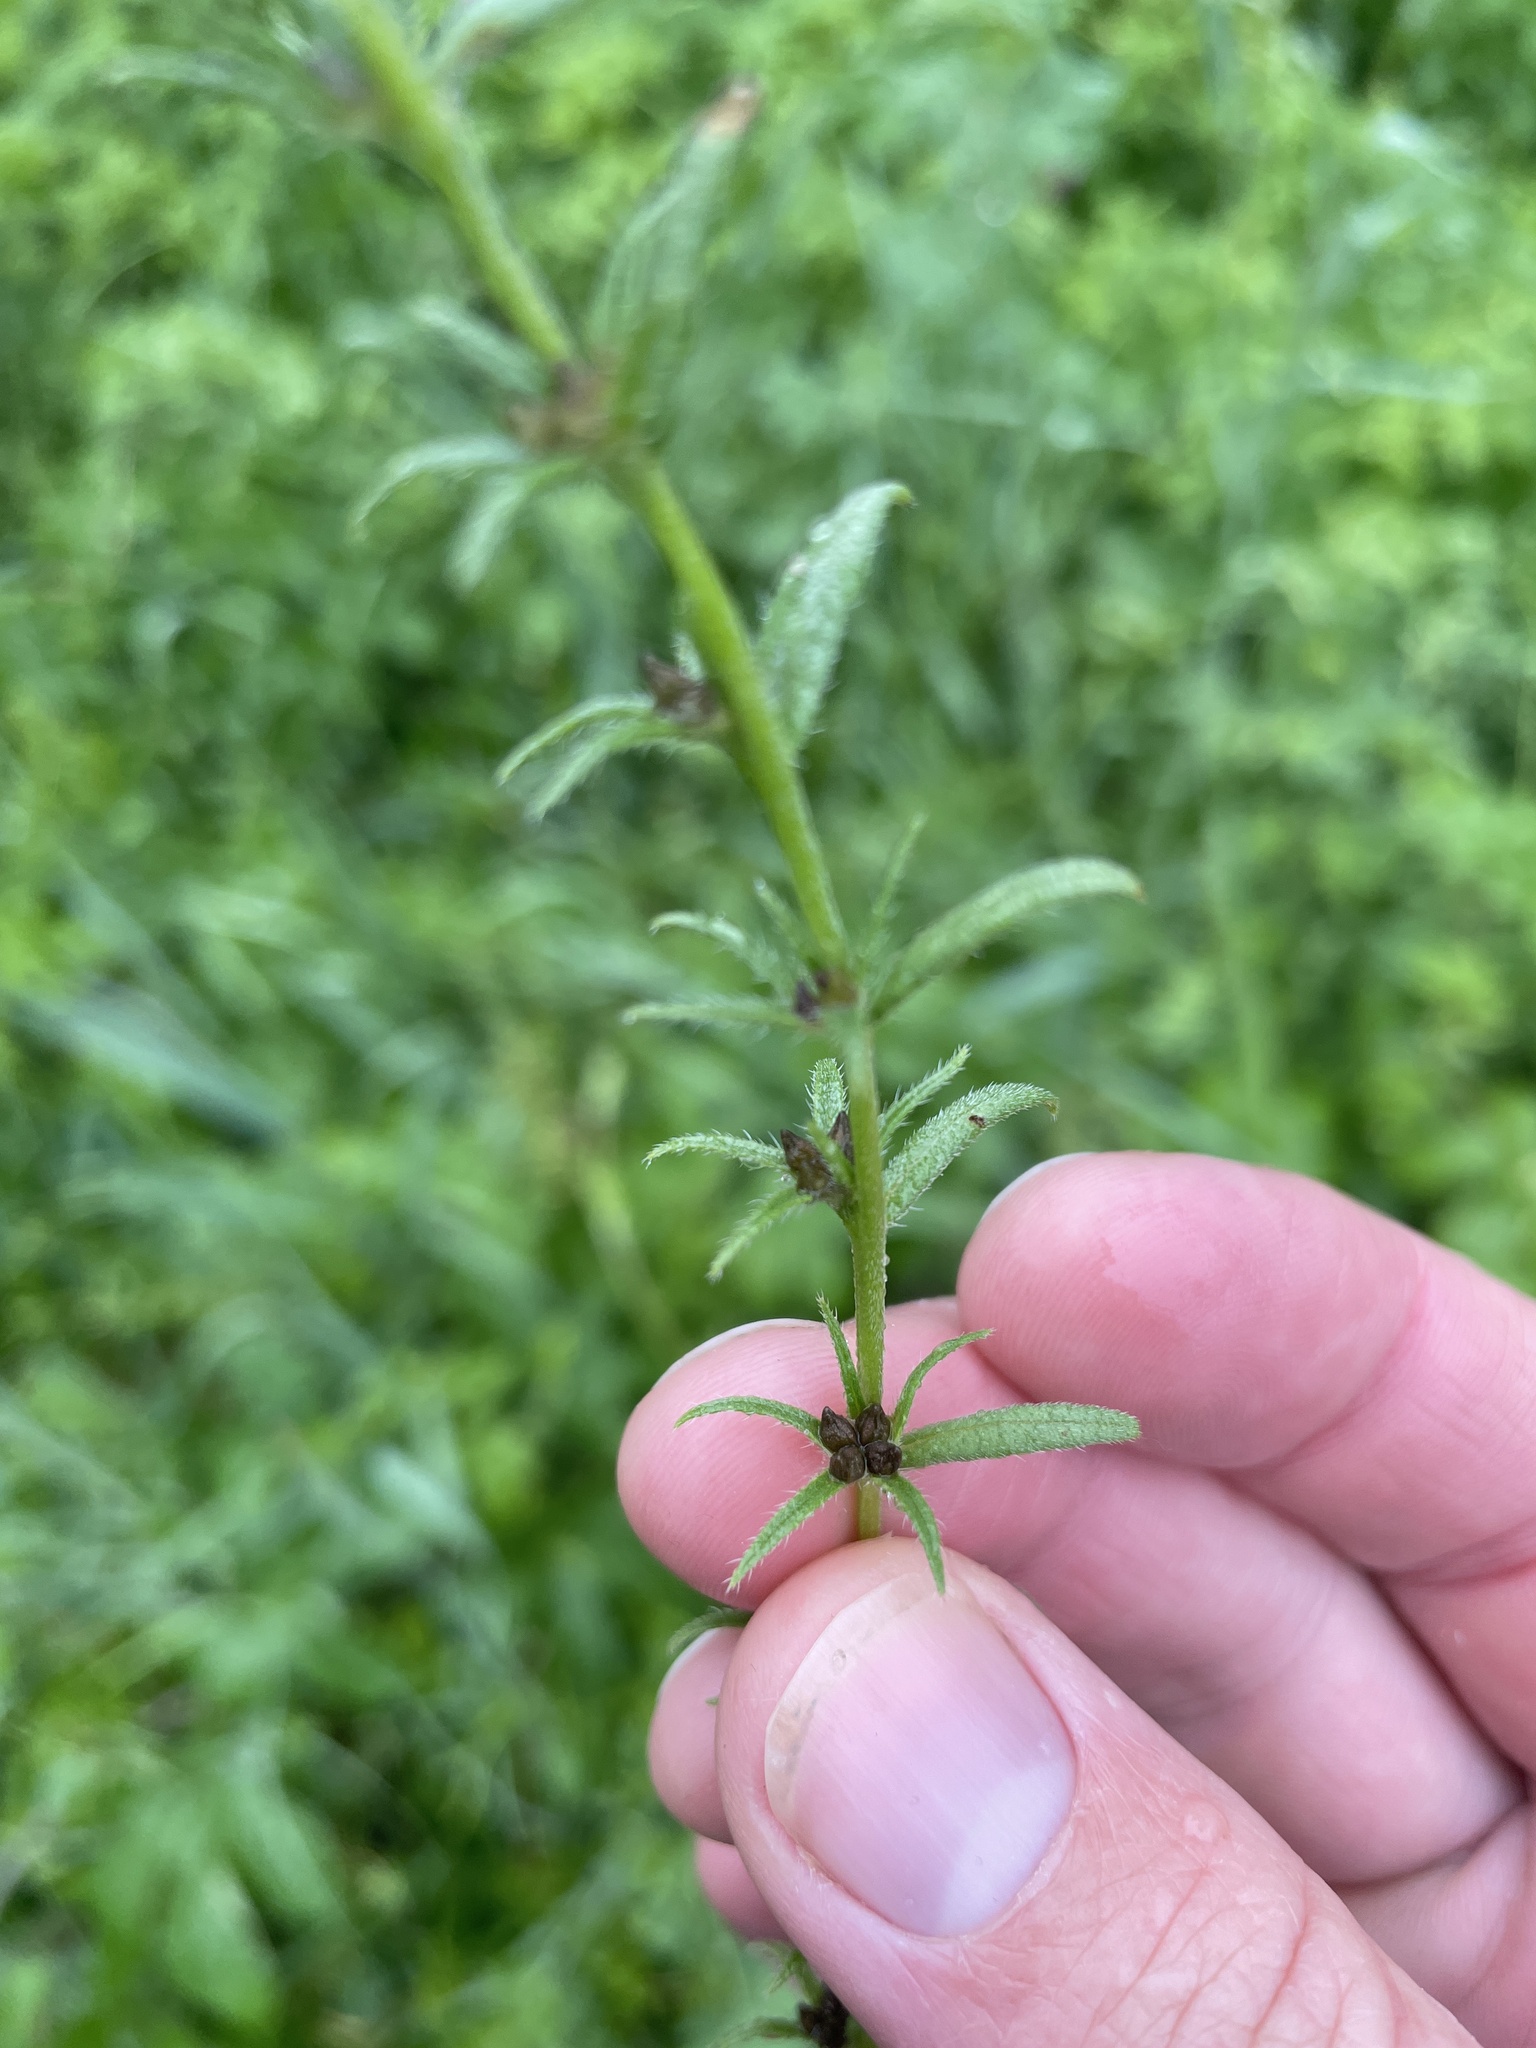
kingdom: Plantae
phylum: Tracheophyta
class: Magnoliopsida
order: Boraginales
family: Boraginaceae
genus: Buglossoides
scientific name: Buglossoides arvensis
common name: Corn gromwell
